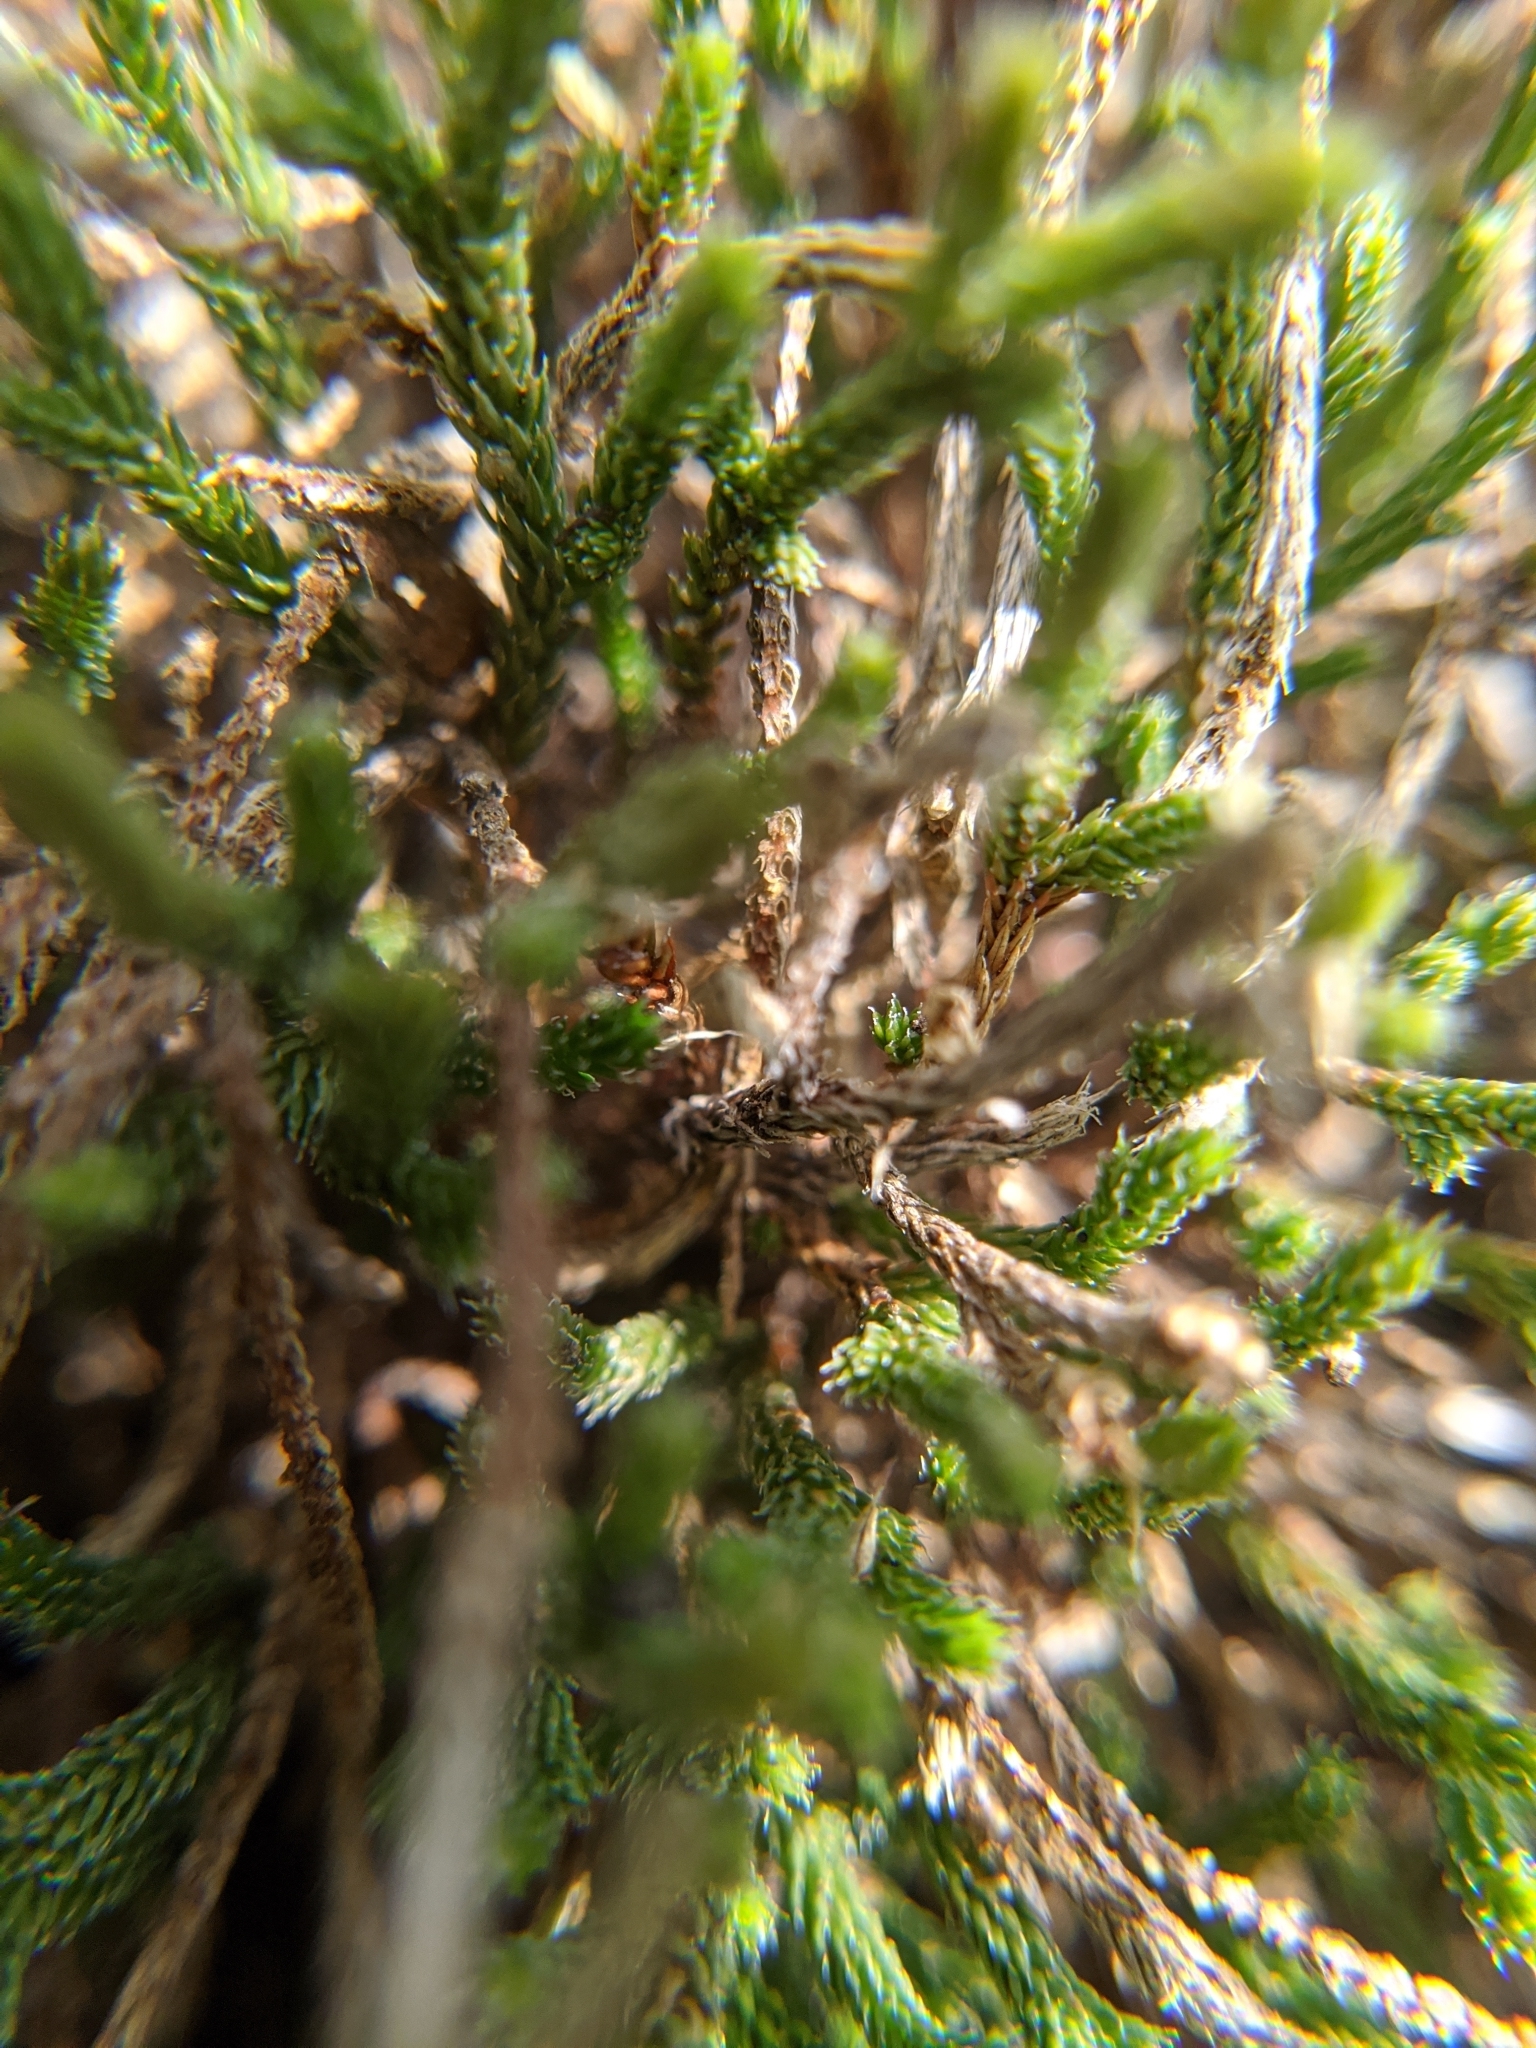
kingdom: Plantae
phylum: Tracheophyta
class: Lycopodiopsida
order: Selaginellales
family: Selaginellaceae
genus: Selaginella
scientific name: Selaginella corallina
